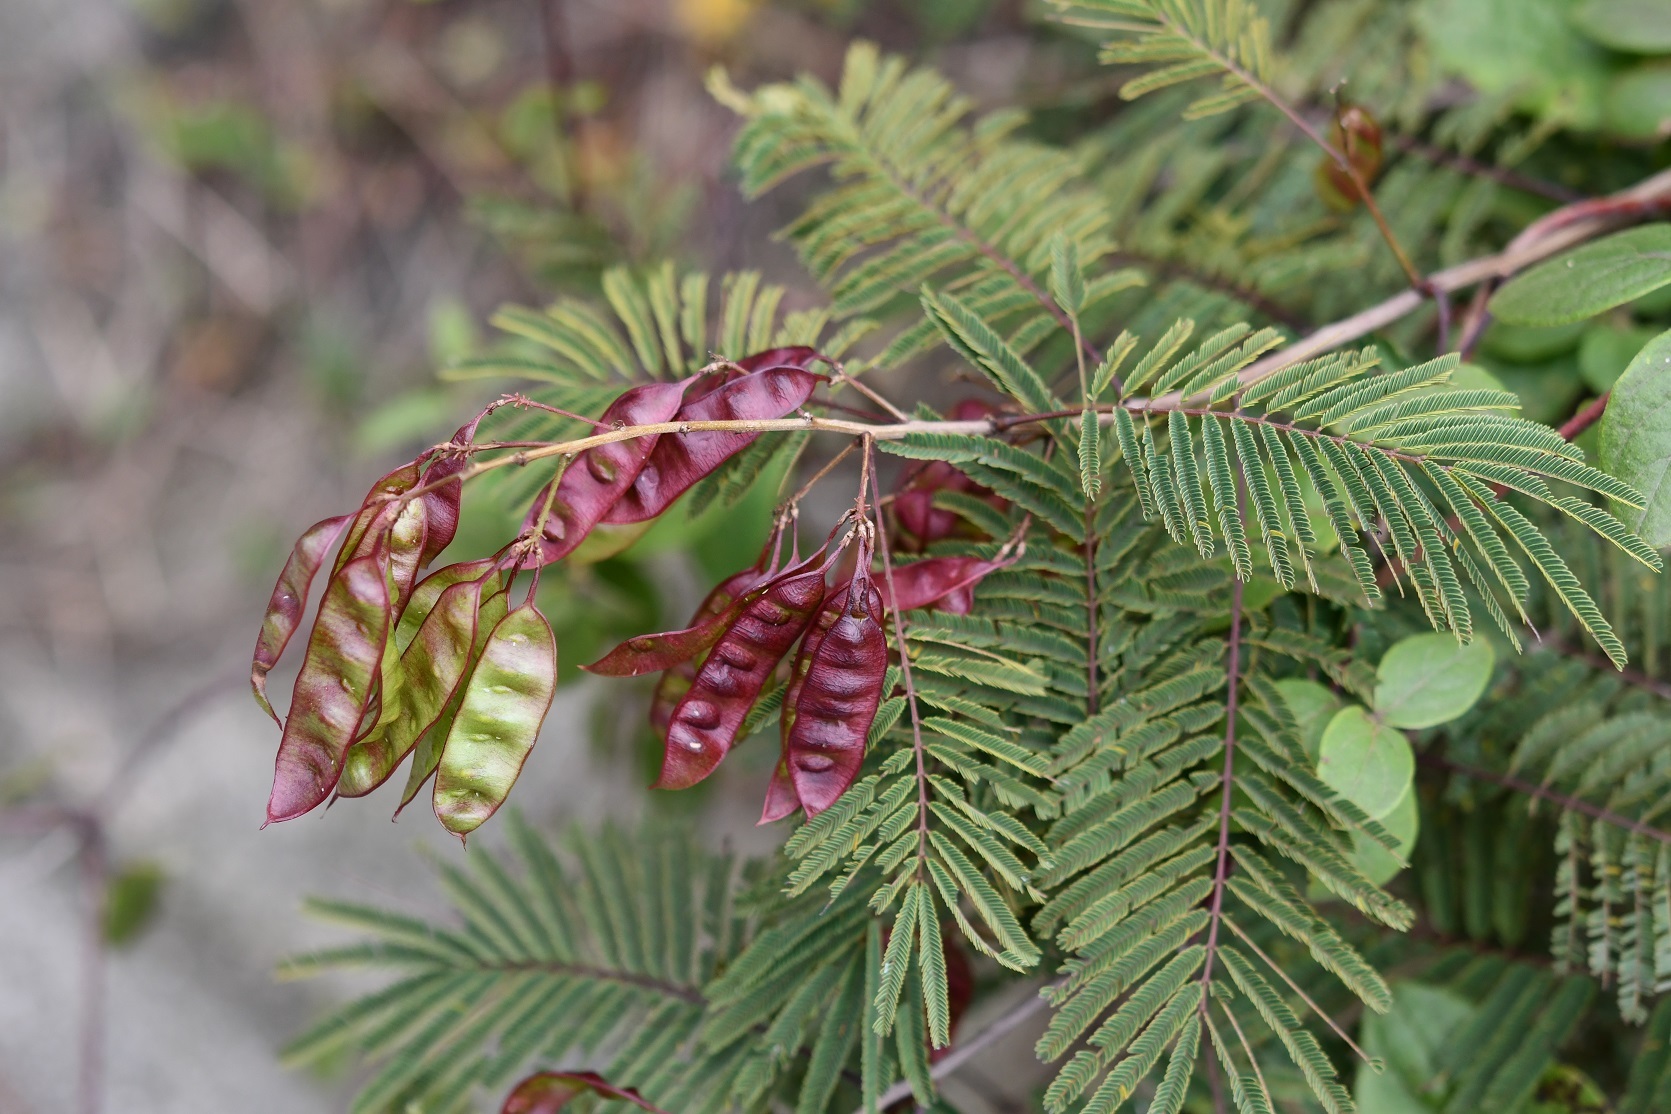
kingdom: Plantae
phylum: Tracheophyta
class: Magnoliopsida
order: Fabales
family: Fabaceae
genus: Acaciella
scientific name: Acaciella angustissima
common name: Prairie acacia
